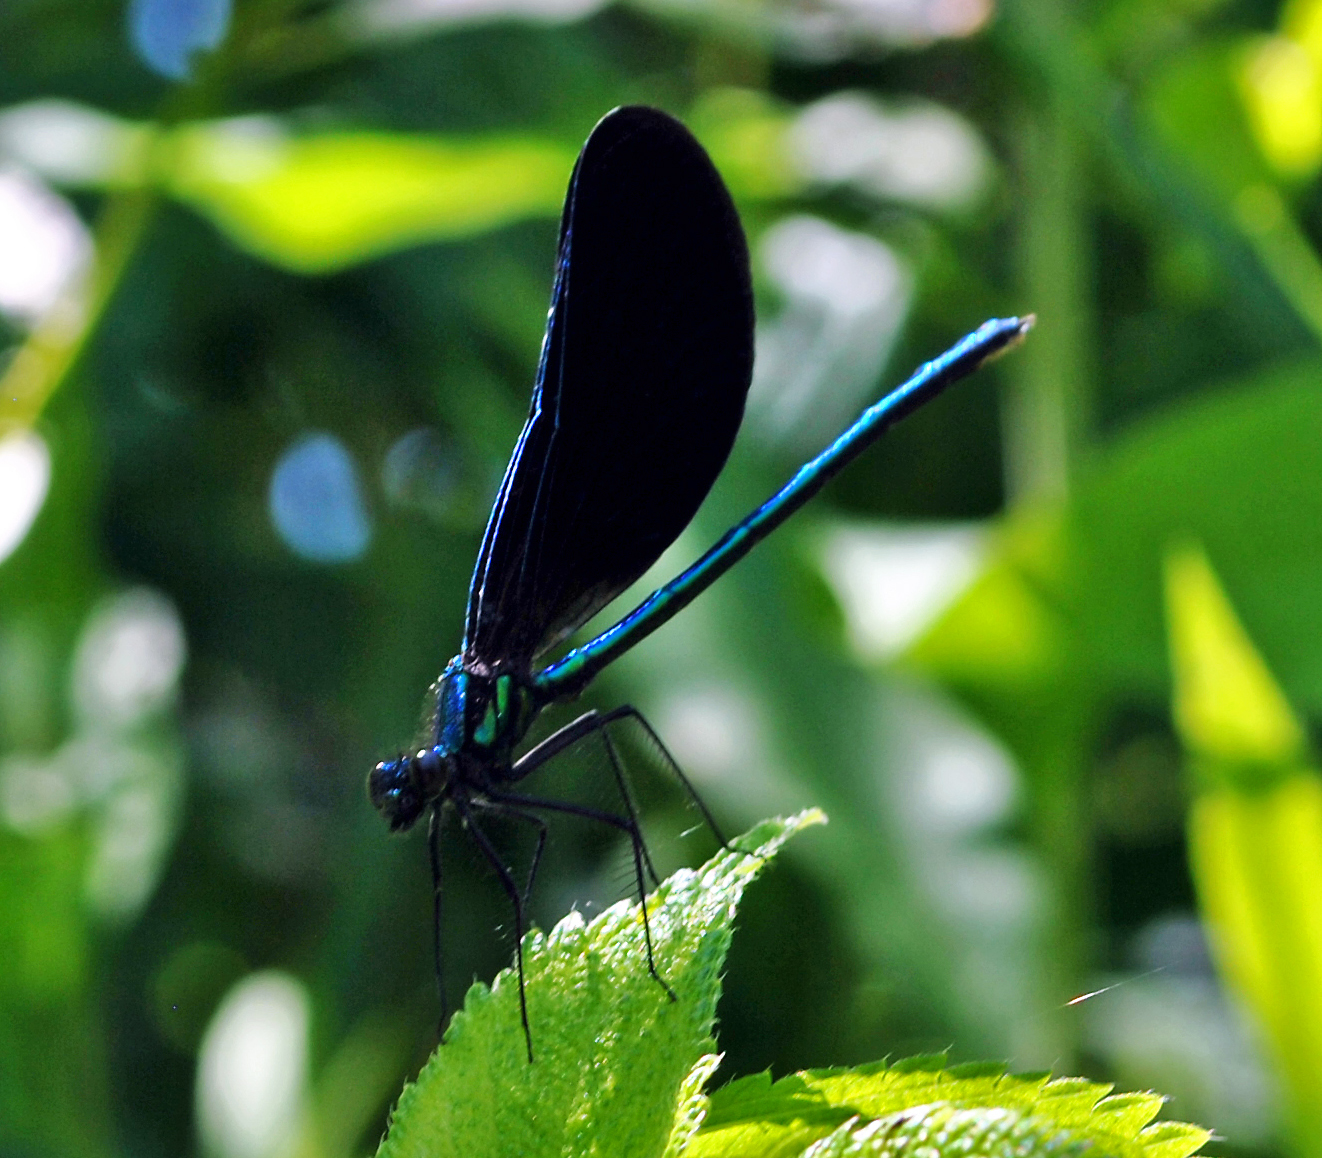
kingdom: Animalia
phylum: Arthropoda
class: Insecta
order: Odonata
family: Calopterygidae
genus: Calopteryx
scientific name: Calopteryx maculata
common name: Ebony jewelwing
